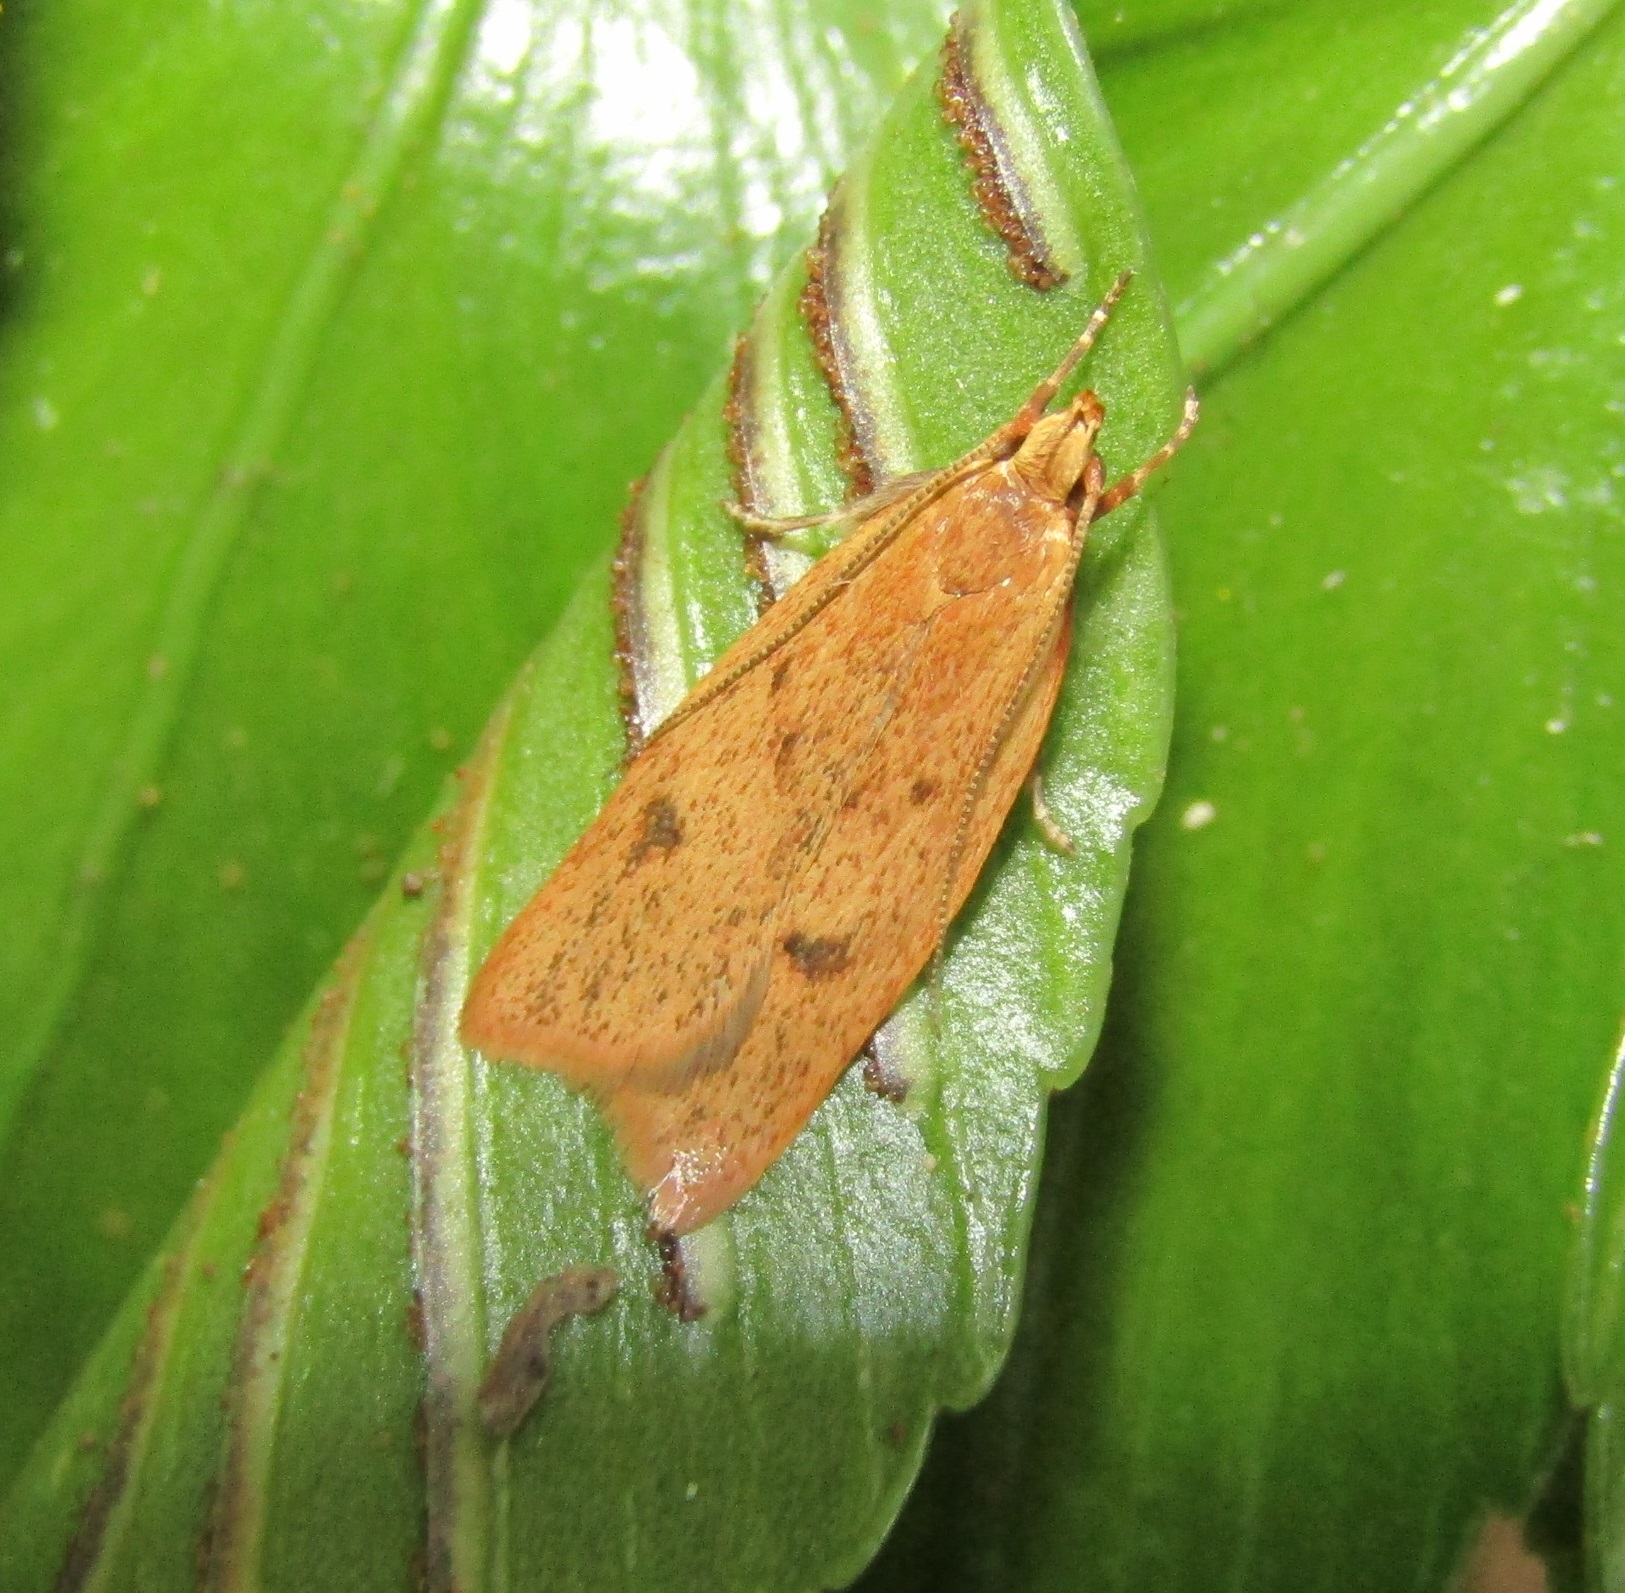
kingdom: Animalia
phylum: Arthropoda
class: Insecta
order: Lepidoptera
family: Oecophoridae
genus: Gymnobathra
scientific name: Gymnobathra sarcoxantha
